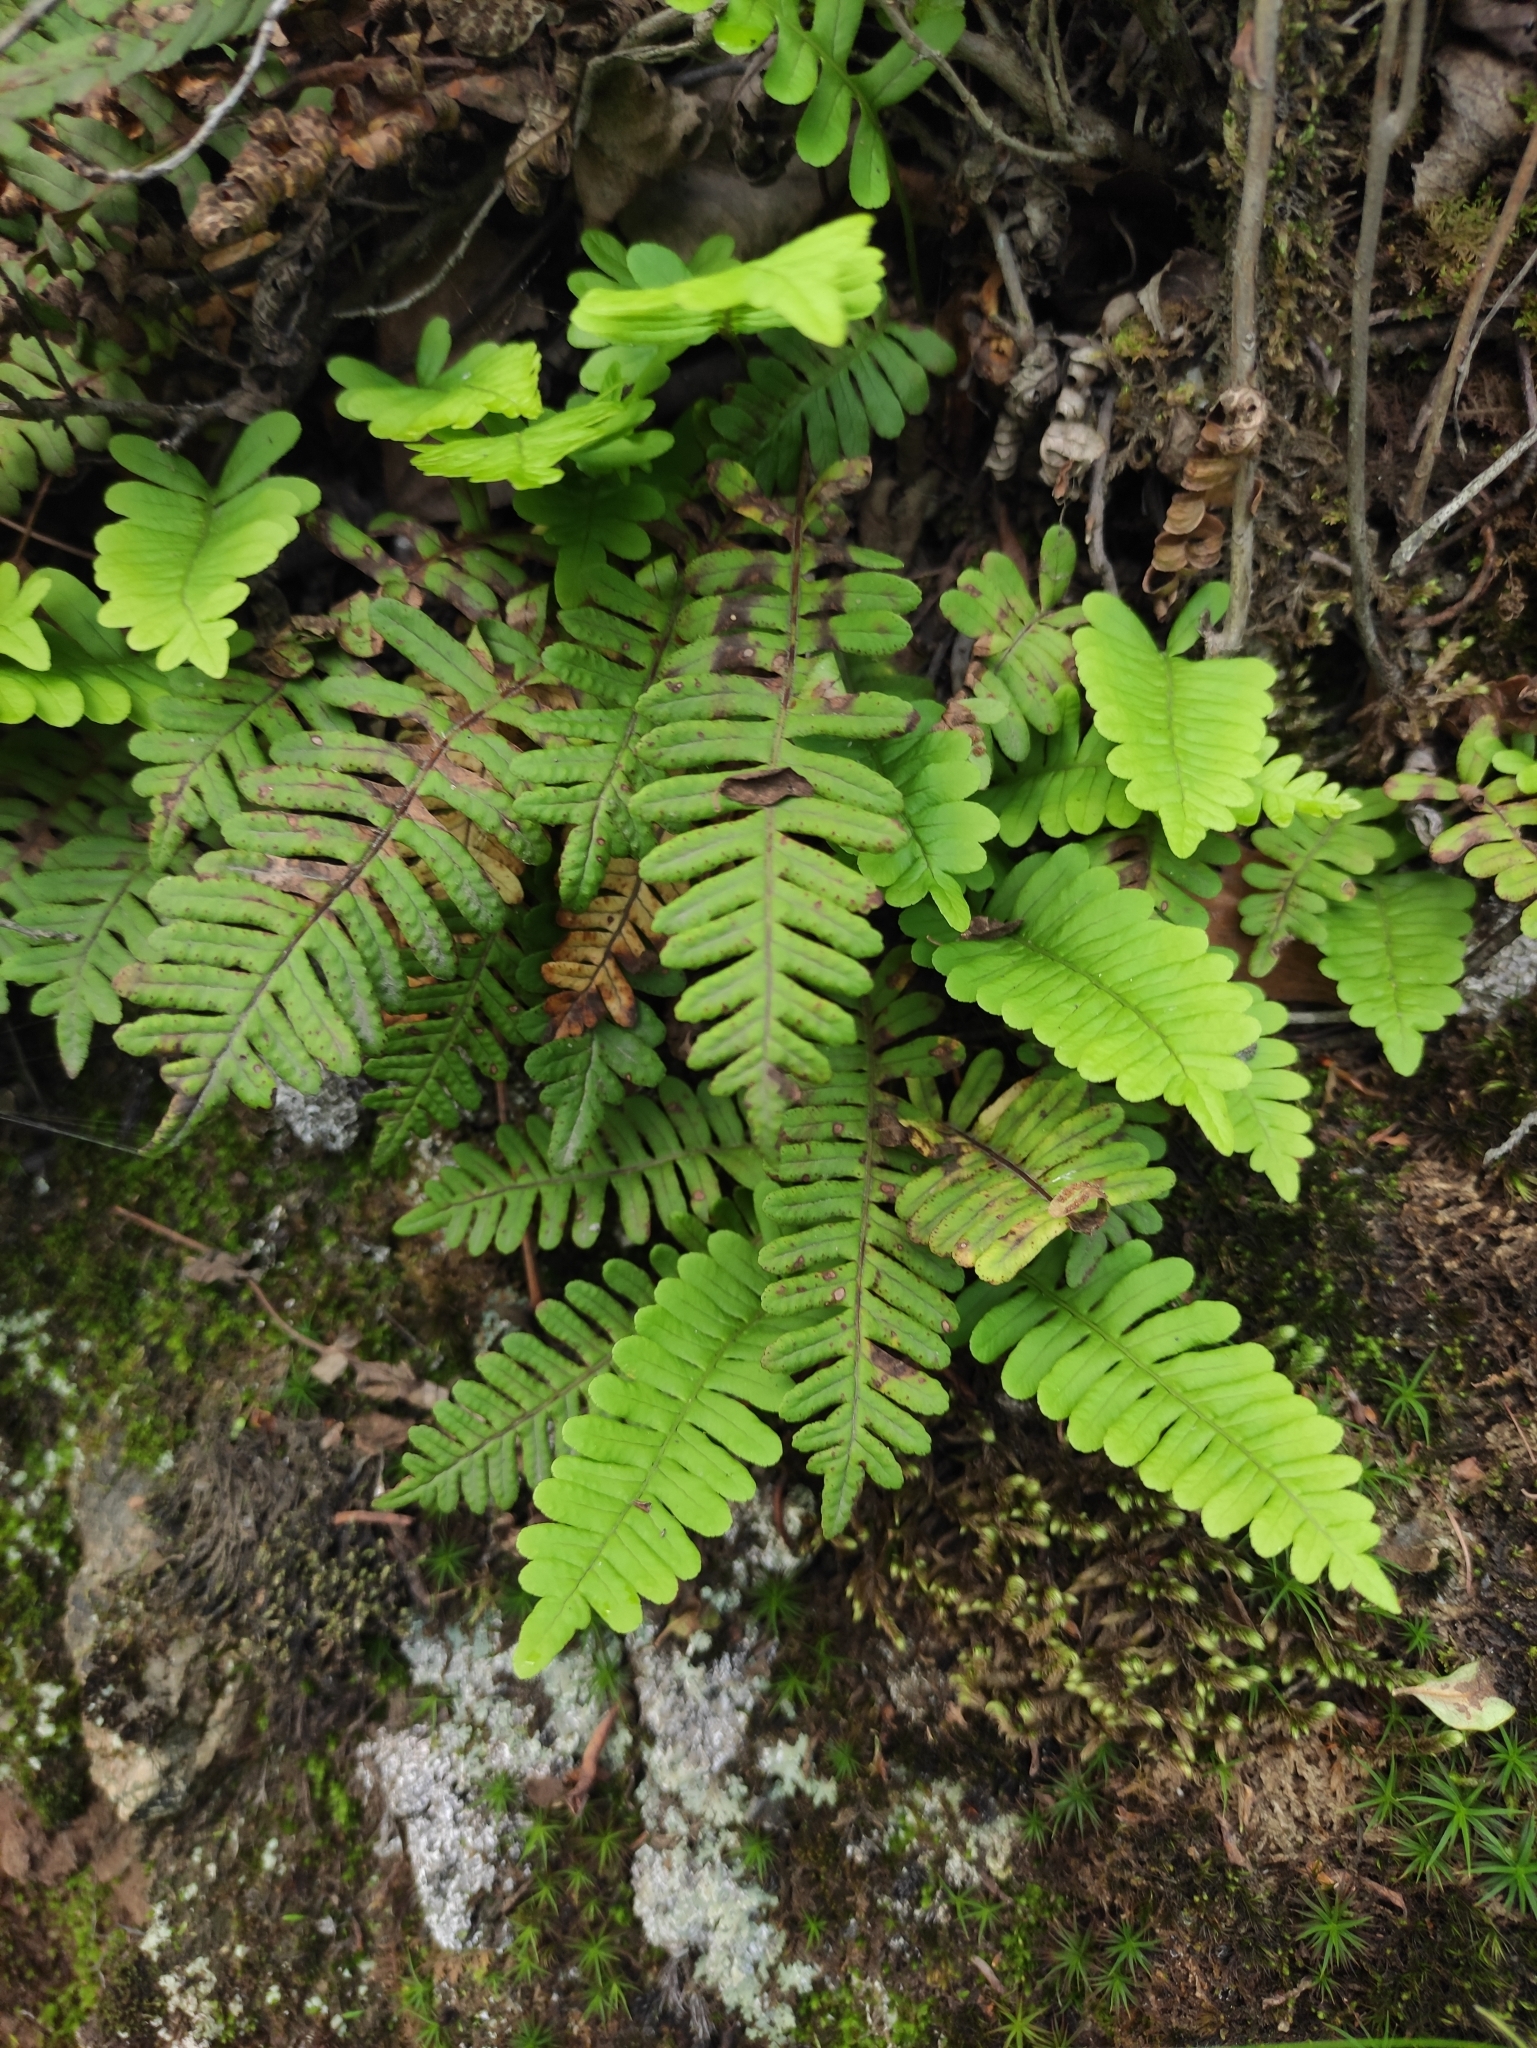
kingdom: Plantae
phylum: Tracheophyta
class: Polypodiopsida
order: Polypodiales
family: Polypodiaceae
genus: Polypodium
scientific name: Polypodium sibiricum
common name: Siberian polypody
